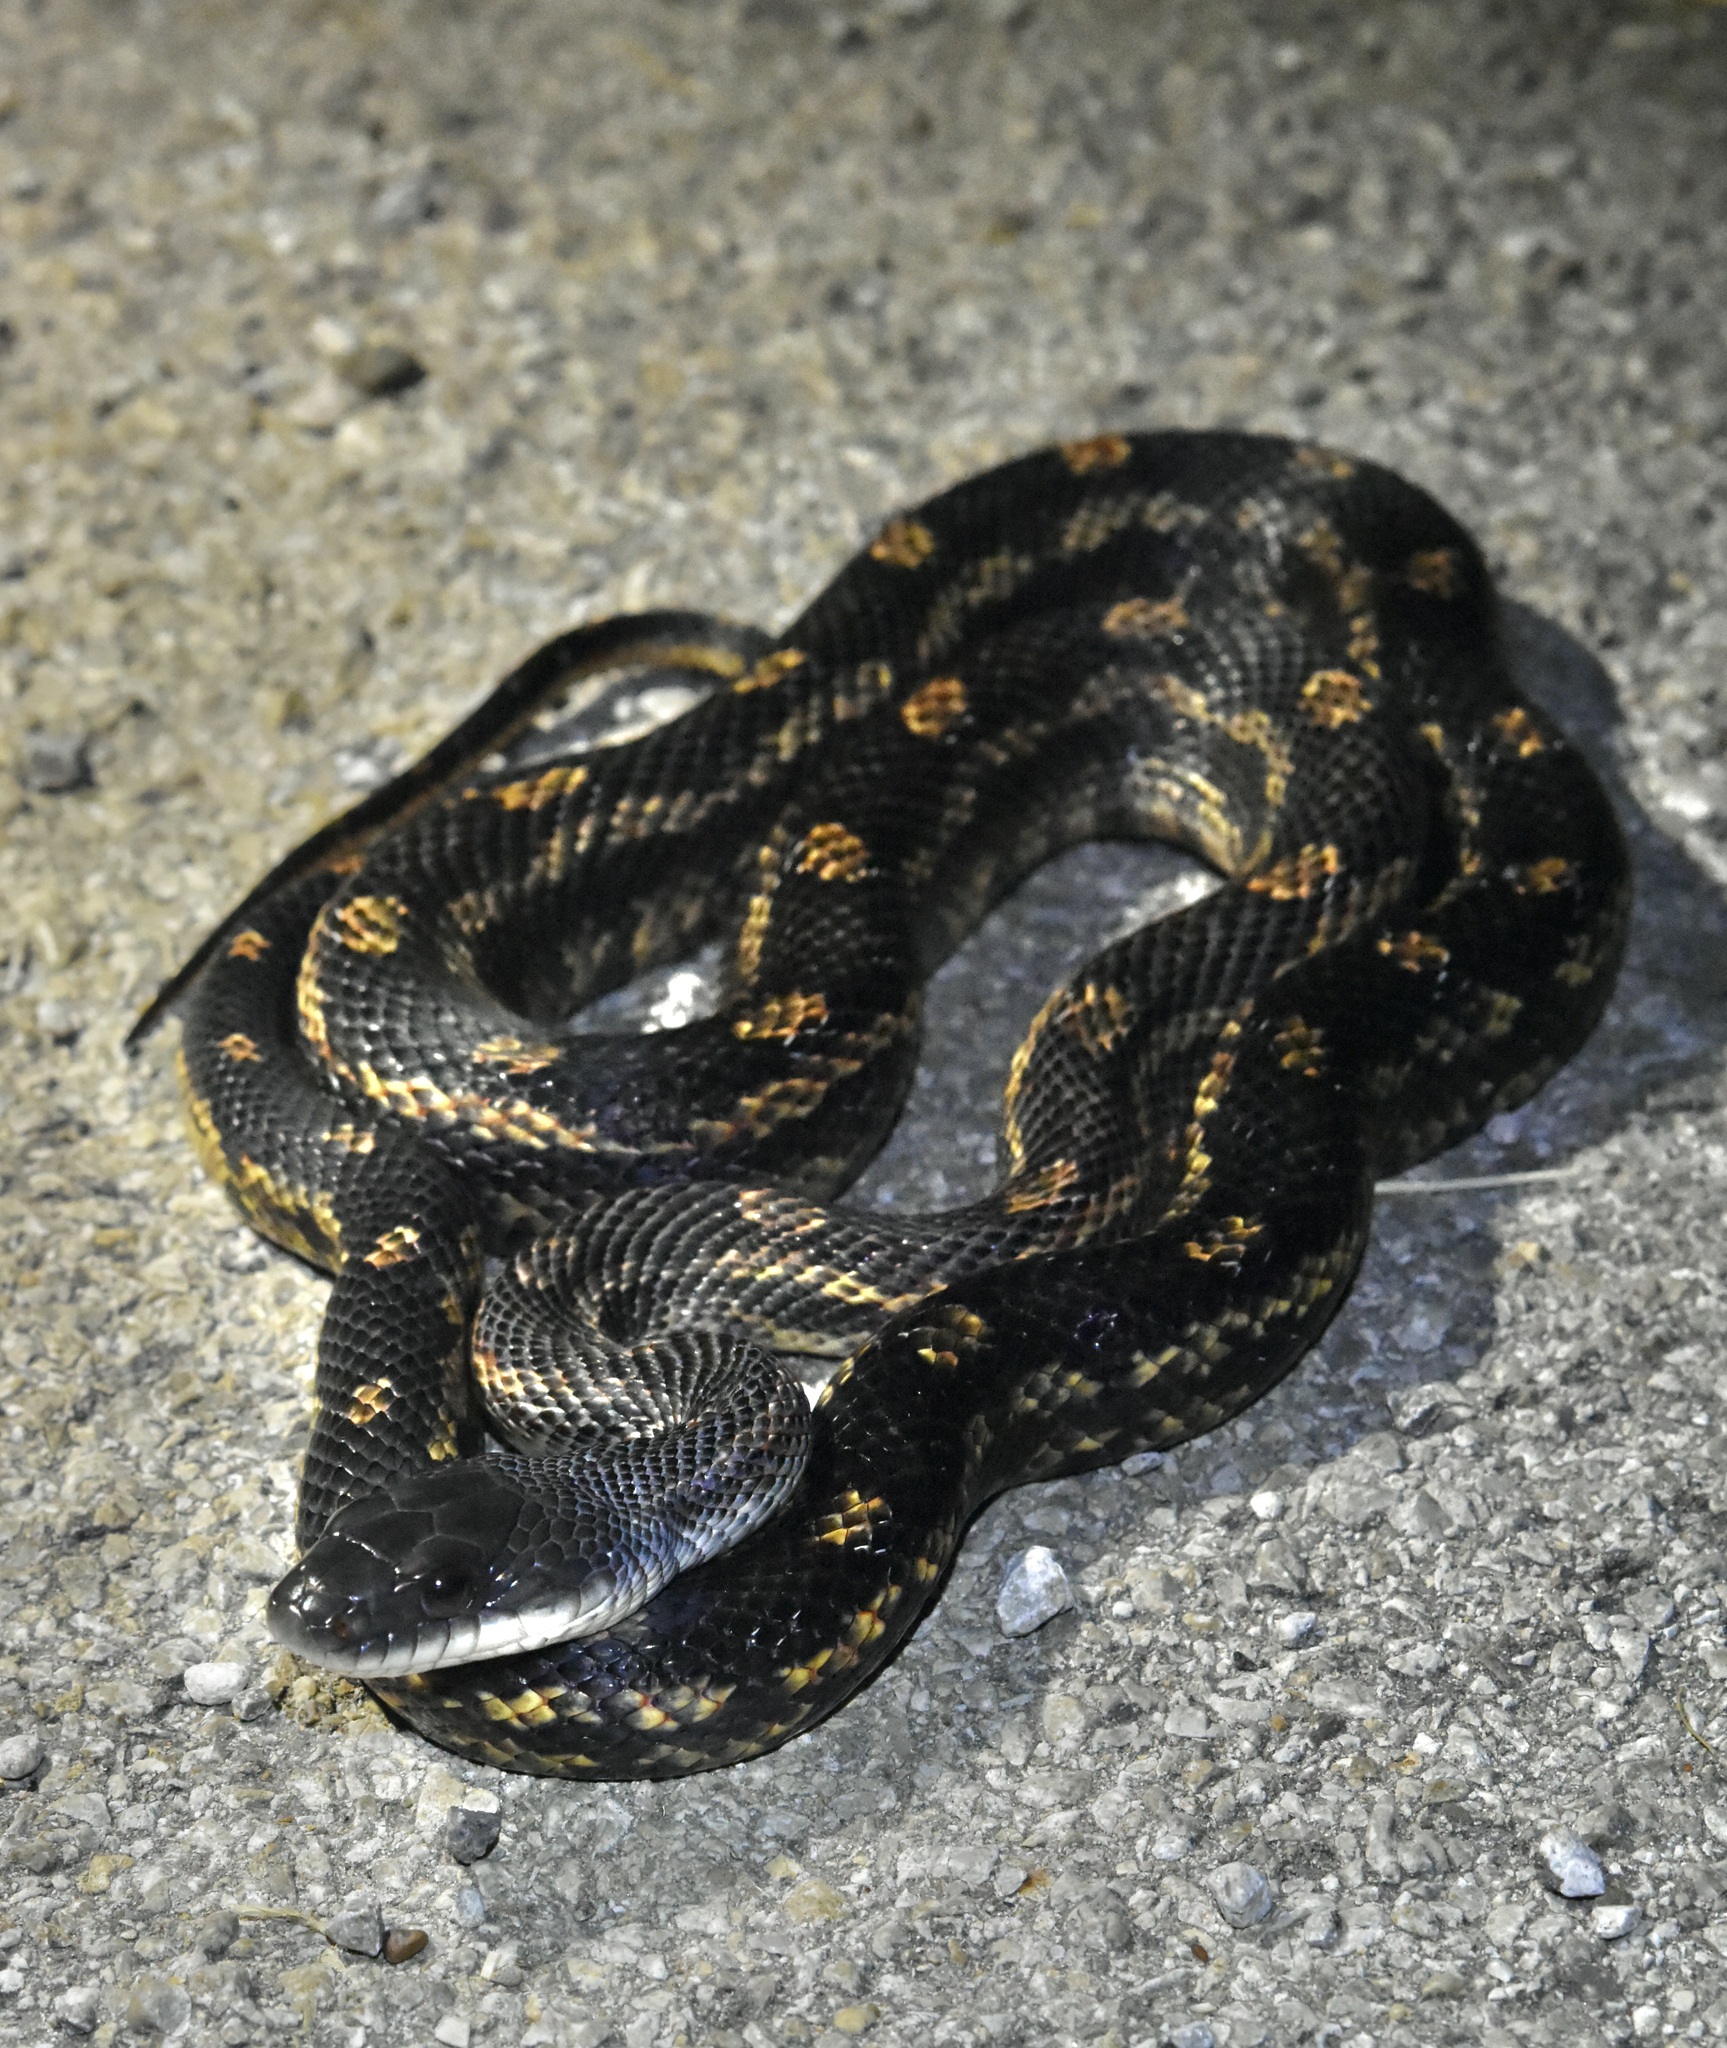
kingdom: Animalia
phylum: Chordata
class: Squamata
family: Colubridae
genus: Pantherophis
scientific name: Pantherophis obsoletus
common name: Black rat snake
